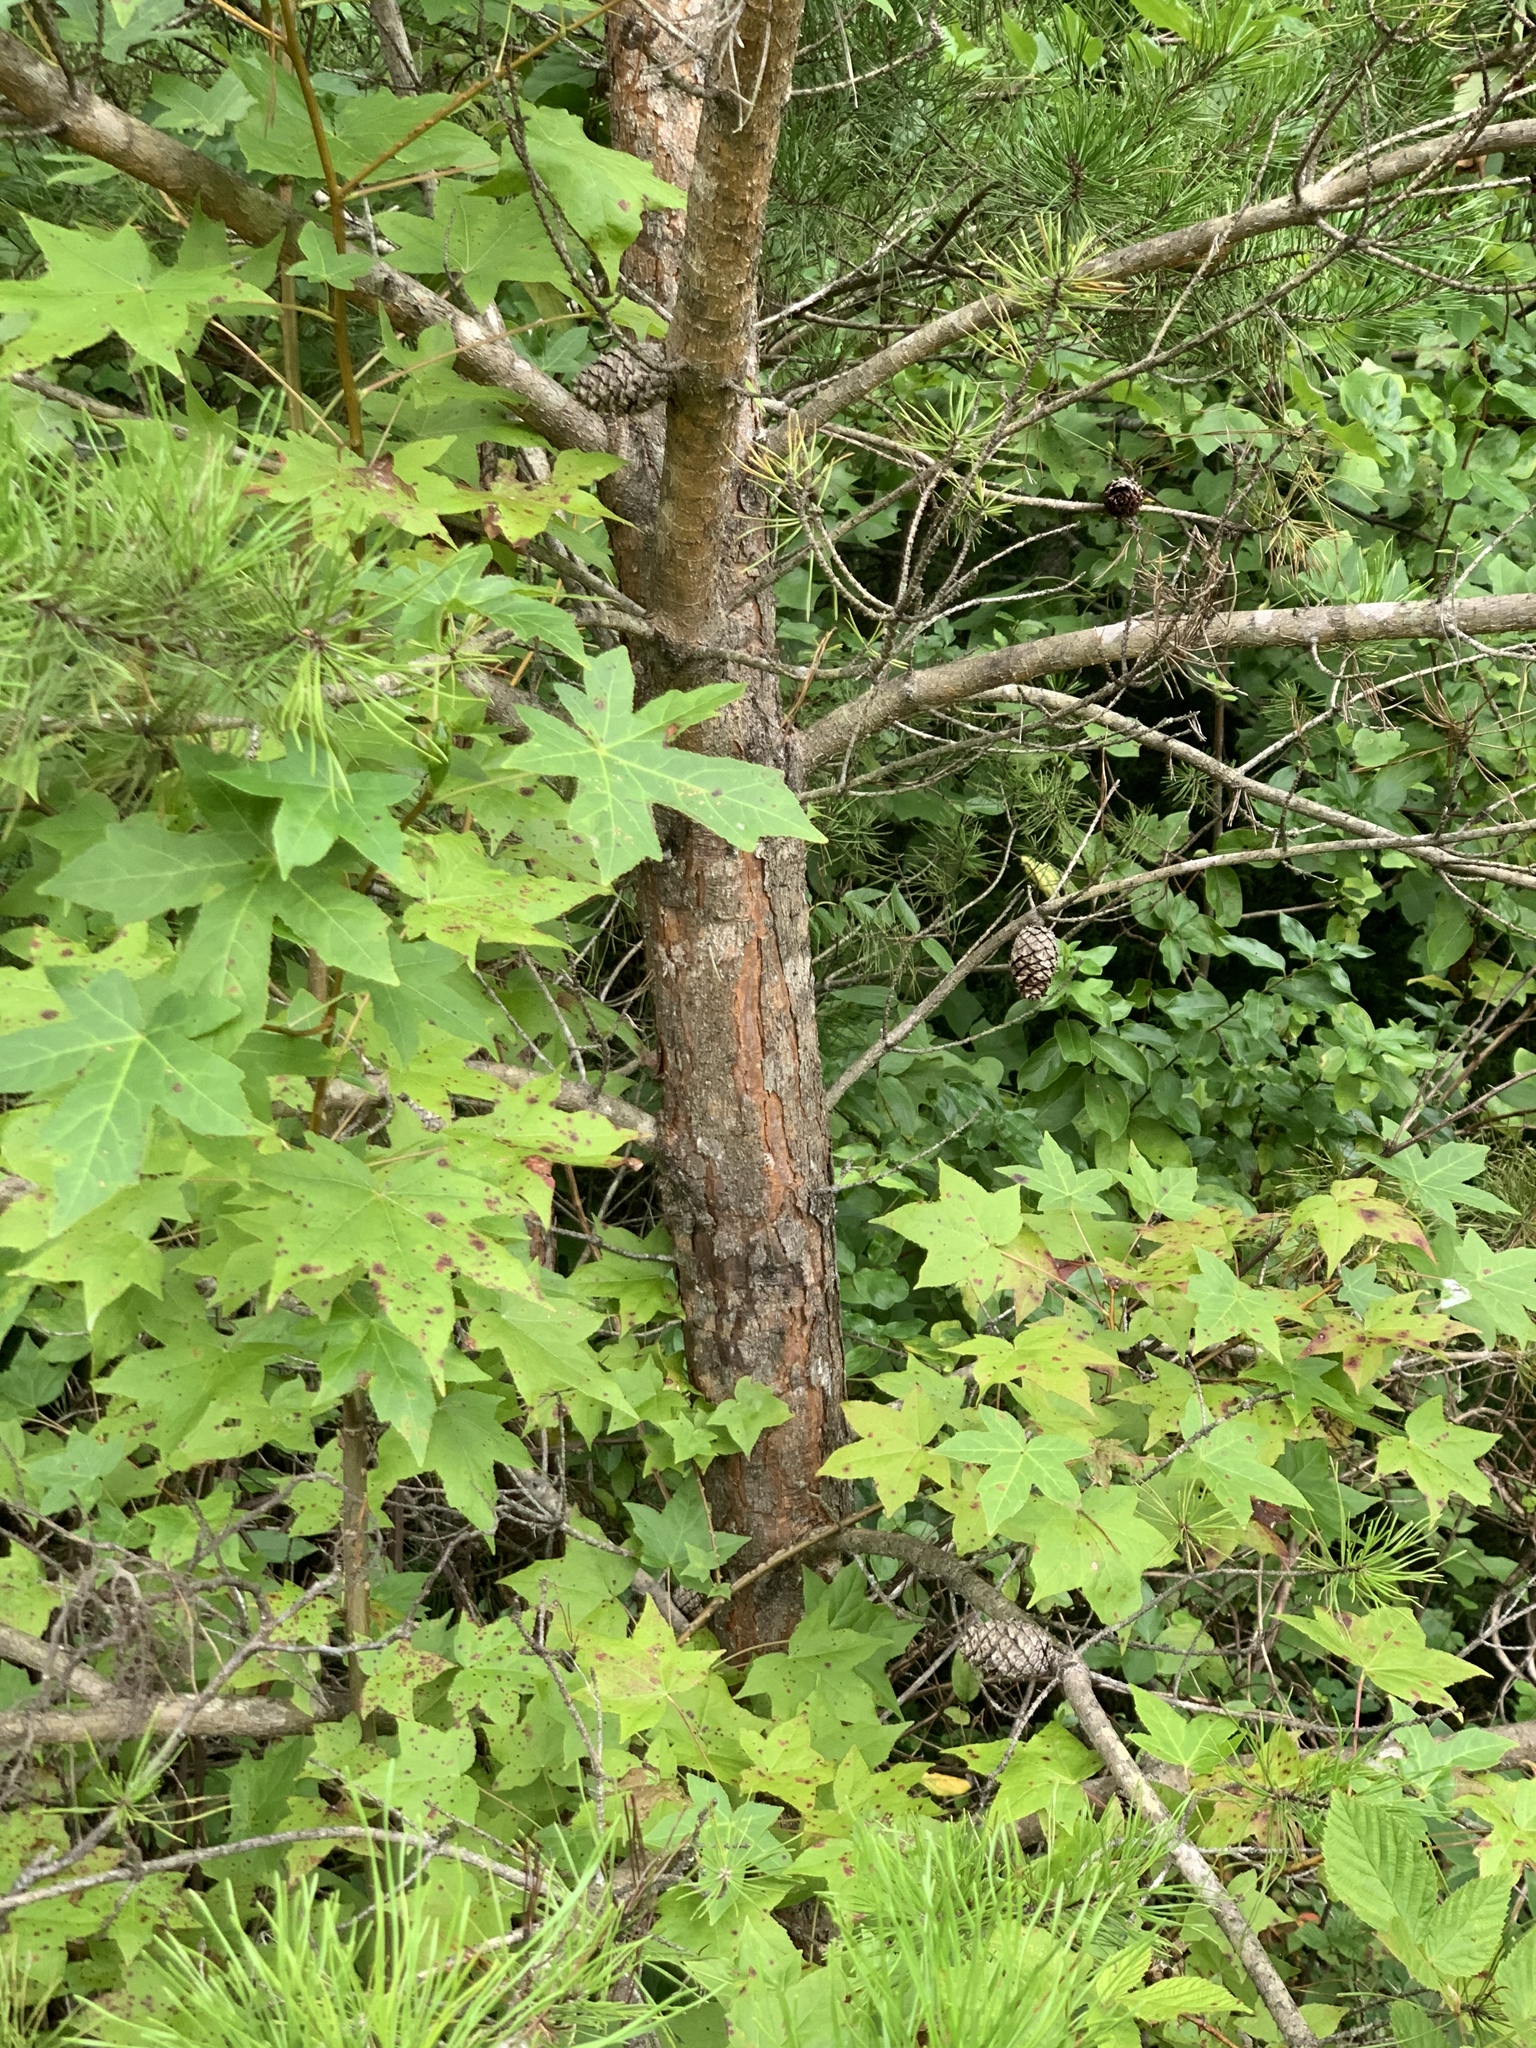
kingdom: Plantae
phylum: Tracheophyta
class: Pinopsida
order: Pinales
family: Pinaceae
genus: Pinus
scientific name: Pinus virginiana
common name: Scrub pine
